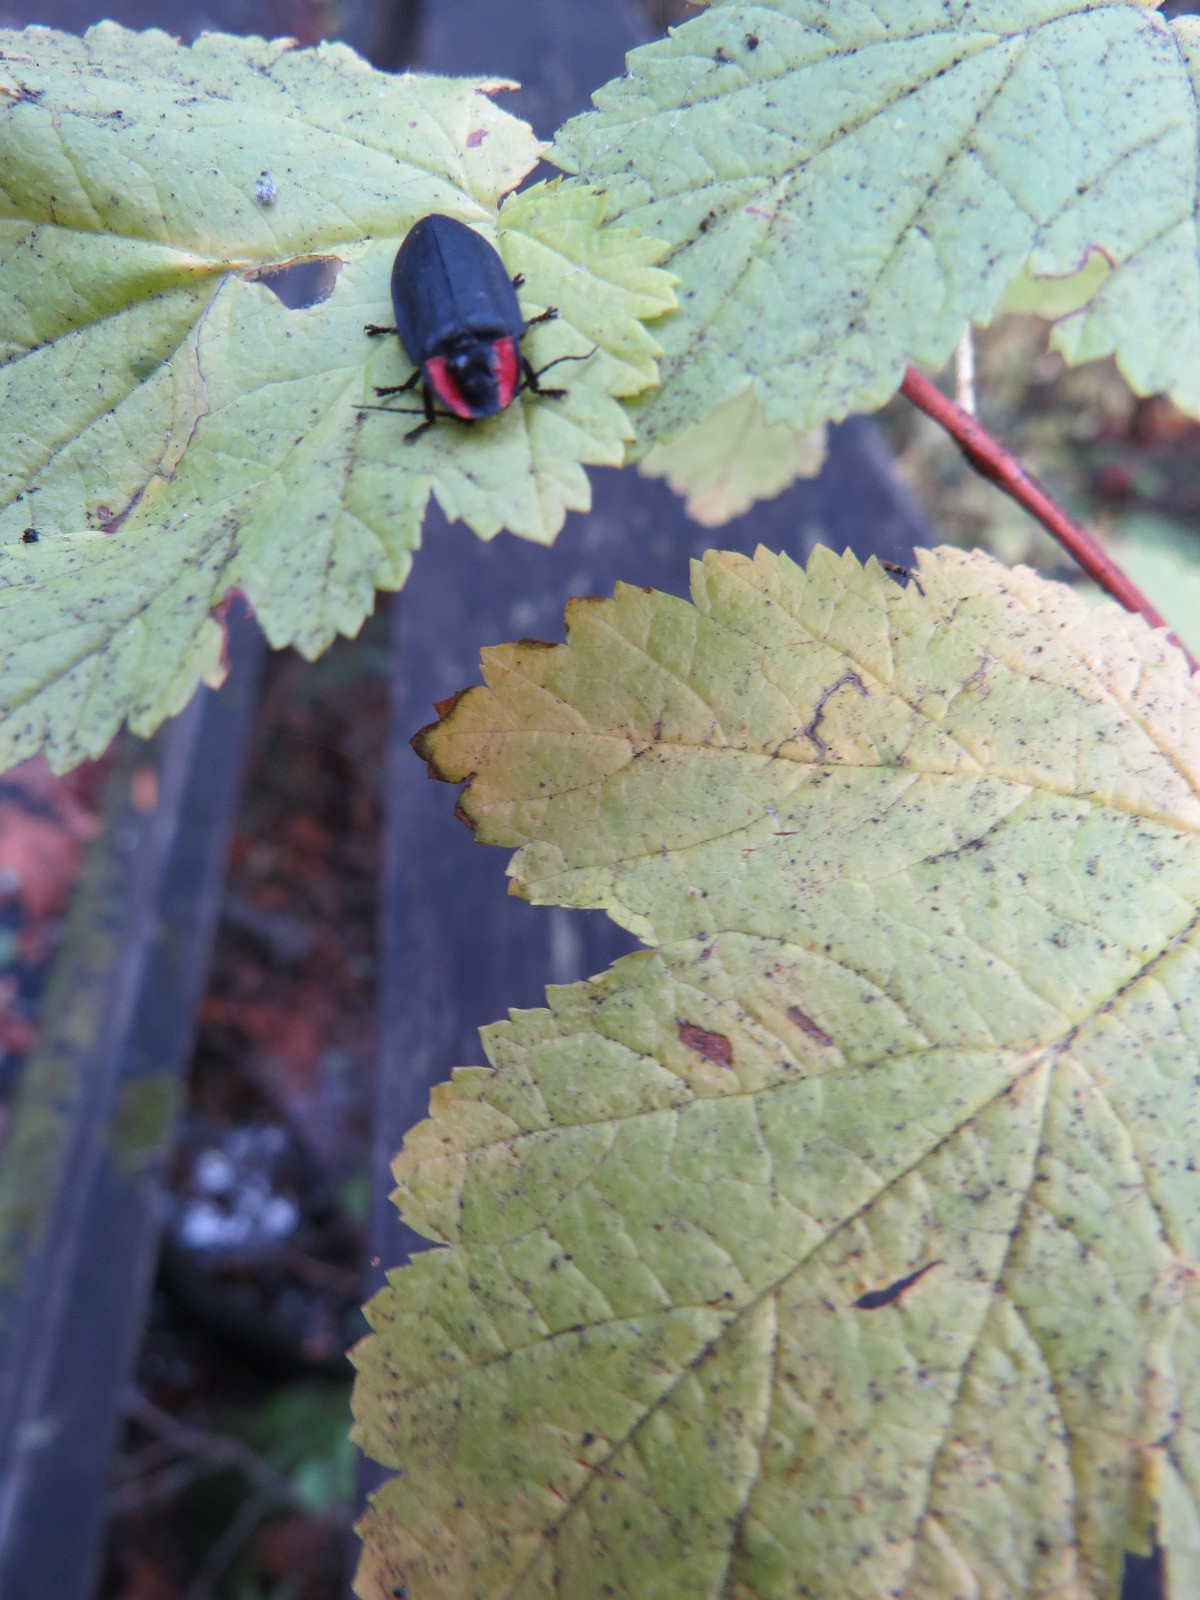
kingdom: Animalia
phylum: Arthropoda
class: Insecta
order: Coleoptera
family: Lampyridae
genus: Photinus
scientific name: Photinus californica
